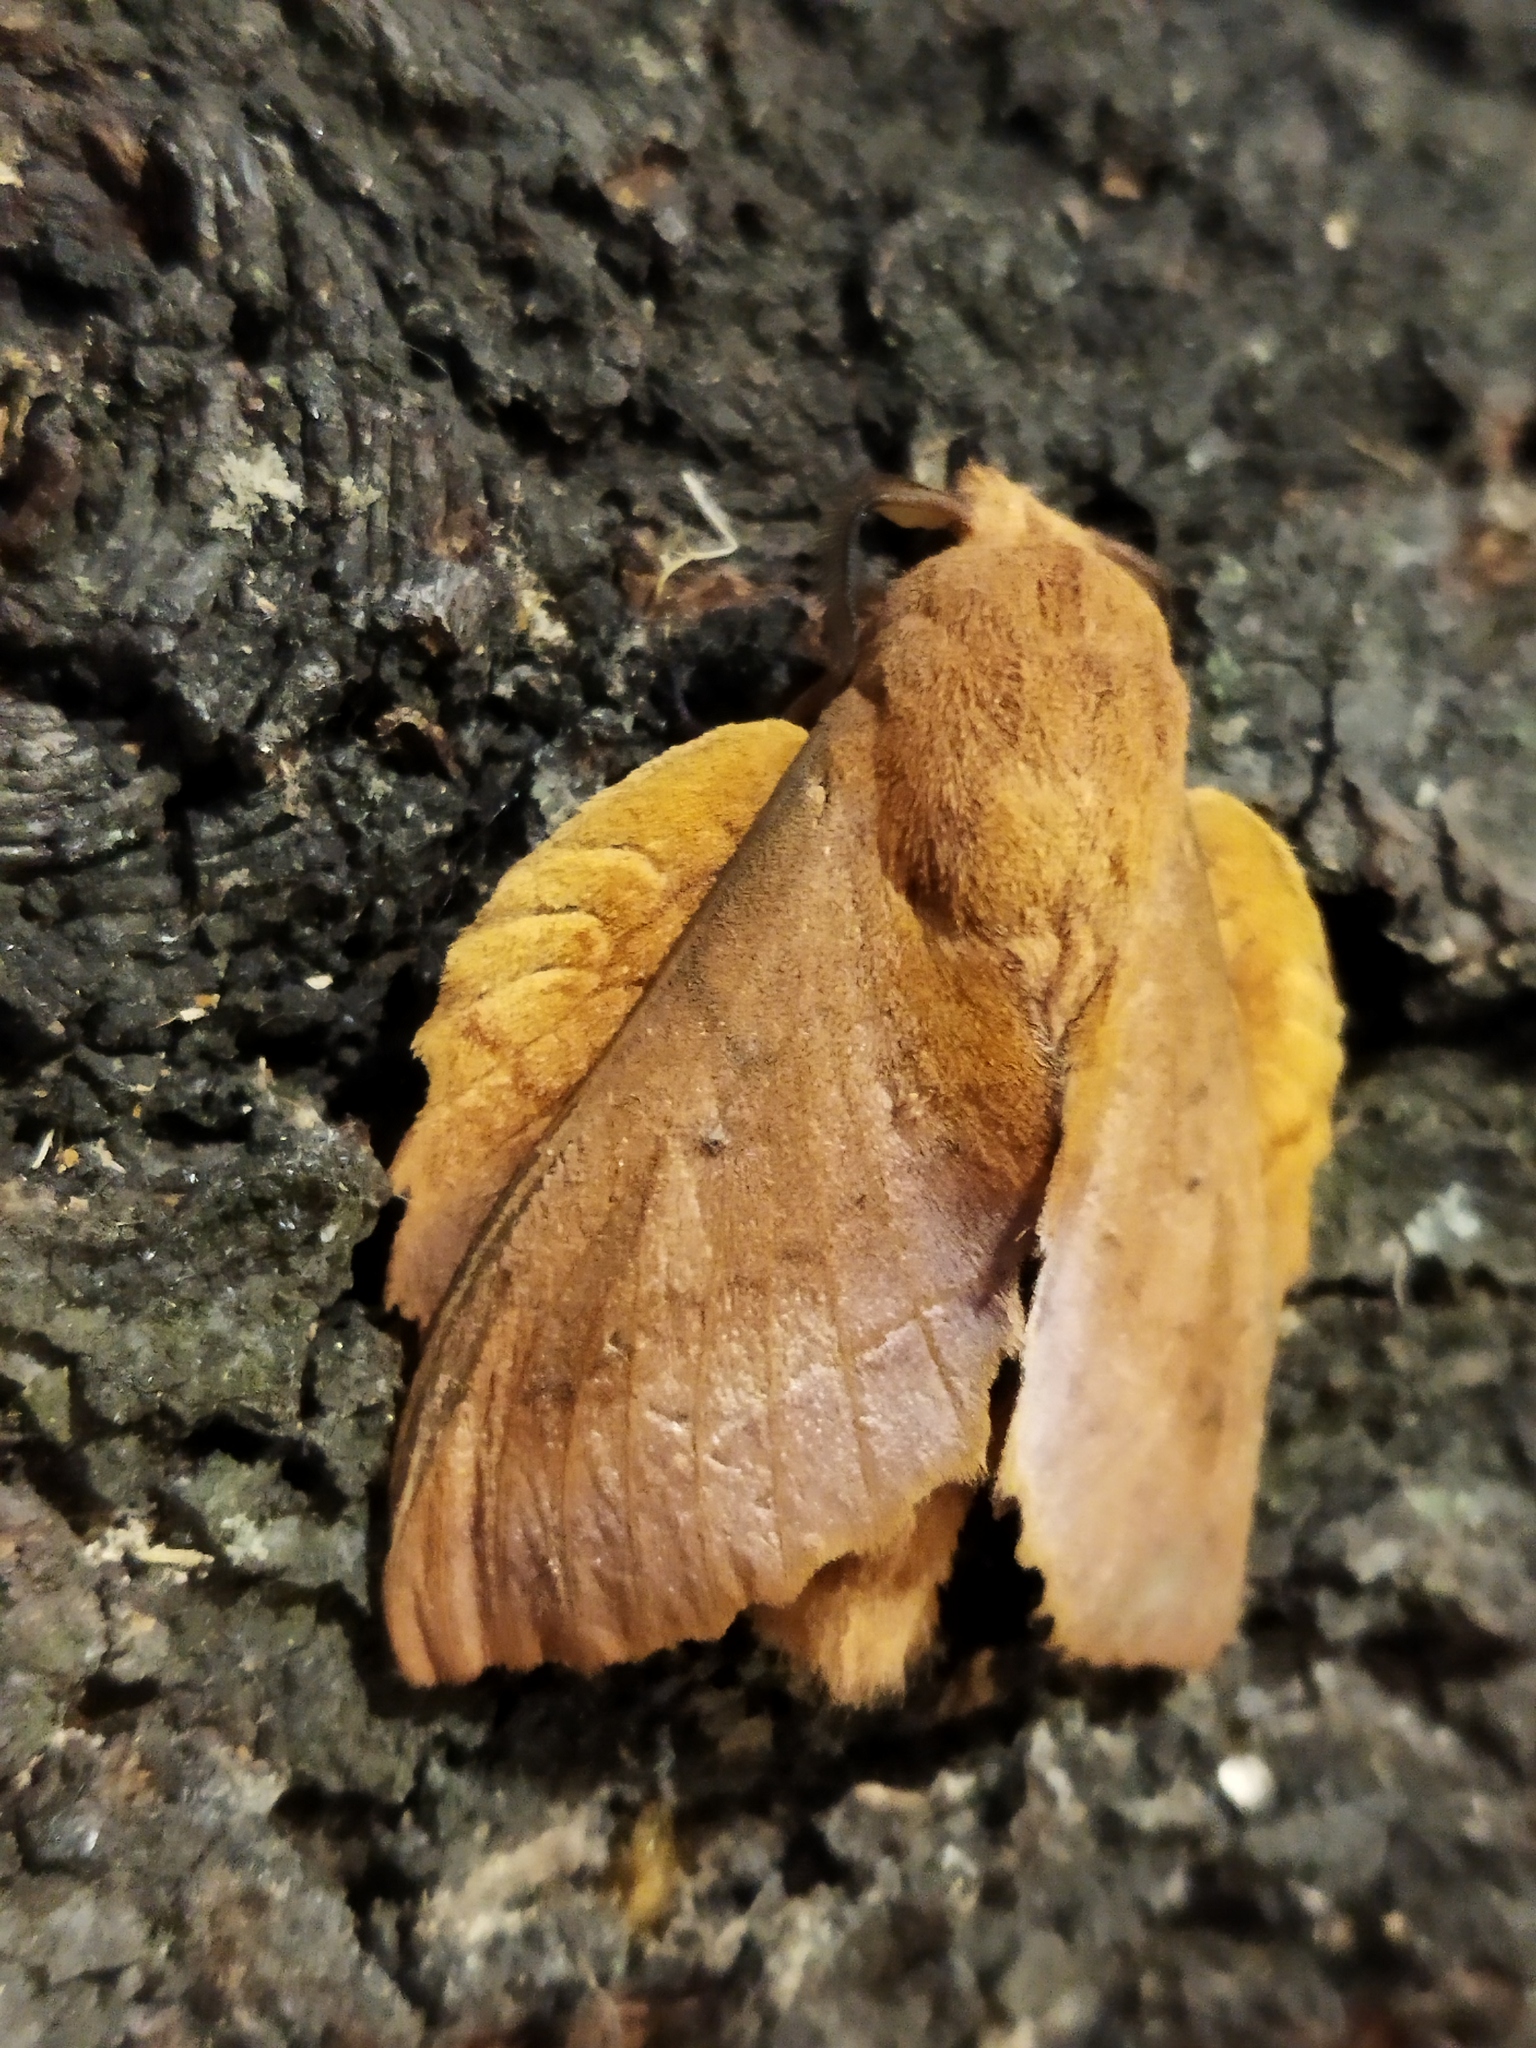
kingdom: Animalia
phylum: Arthropoda
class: Insecta
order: Lepidoptera
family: Lasiocampidae
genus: Gastropacha
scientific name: Gastropacha quercifolia
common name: Lappet
